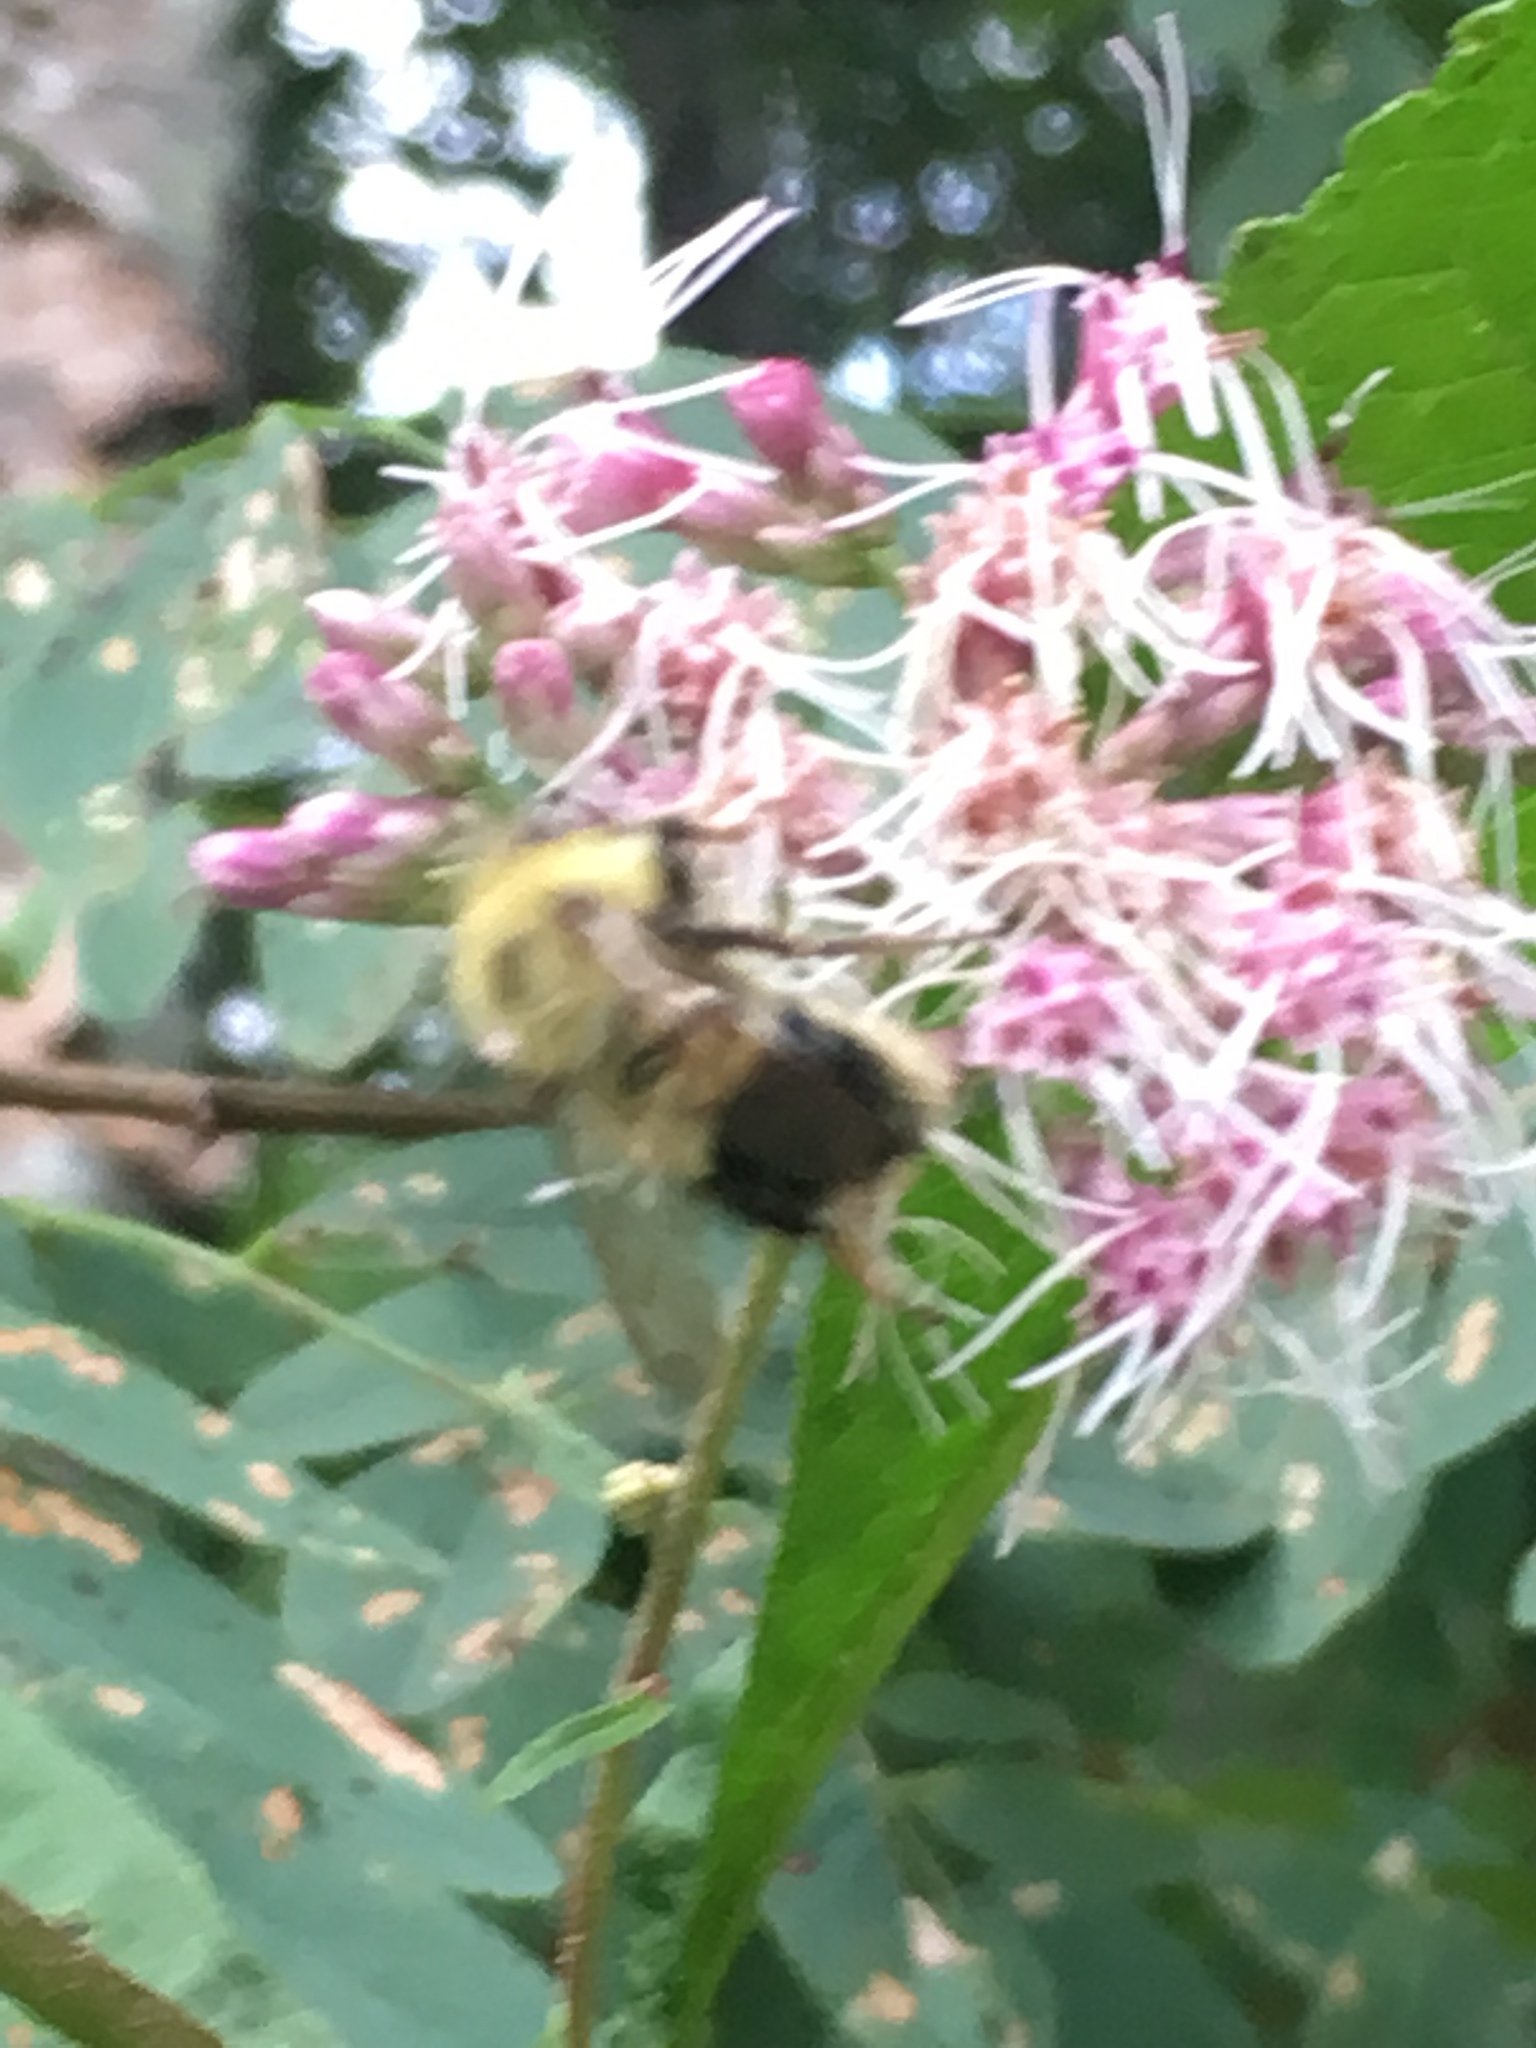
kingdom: Animalia
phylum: Arthropoda
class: Insecta
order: Hymenoptera
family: Apidae
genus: Pyrobombus
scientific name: Pyrobombus
